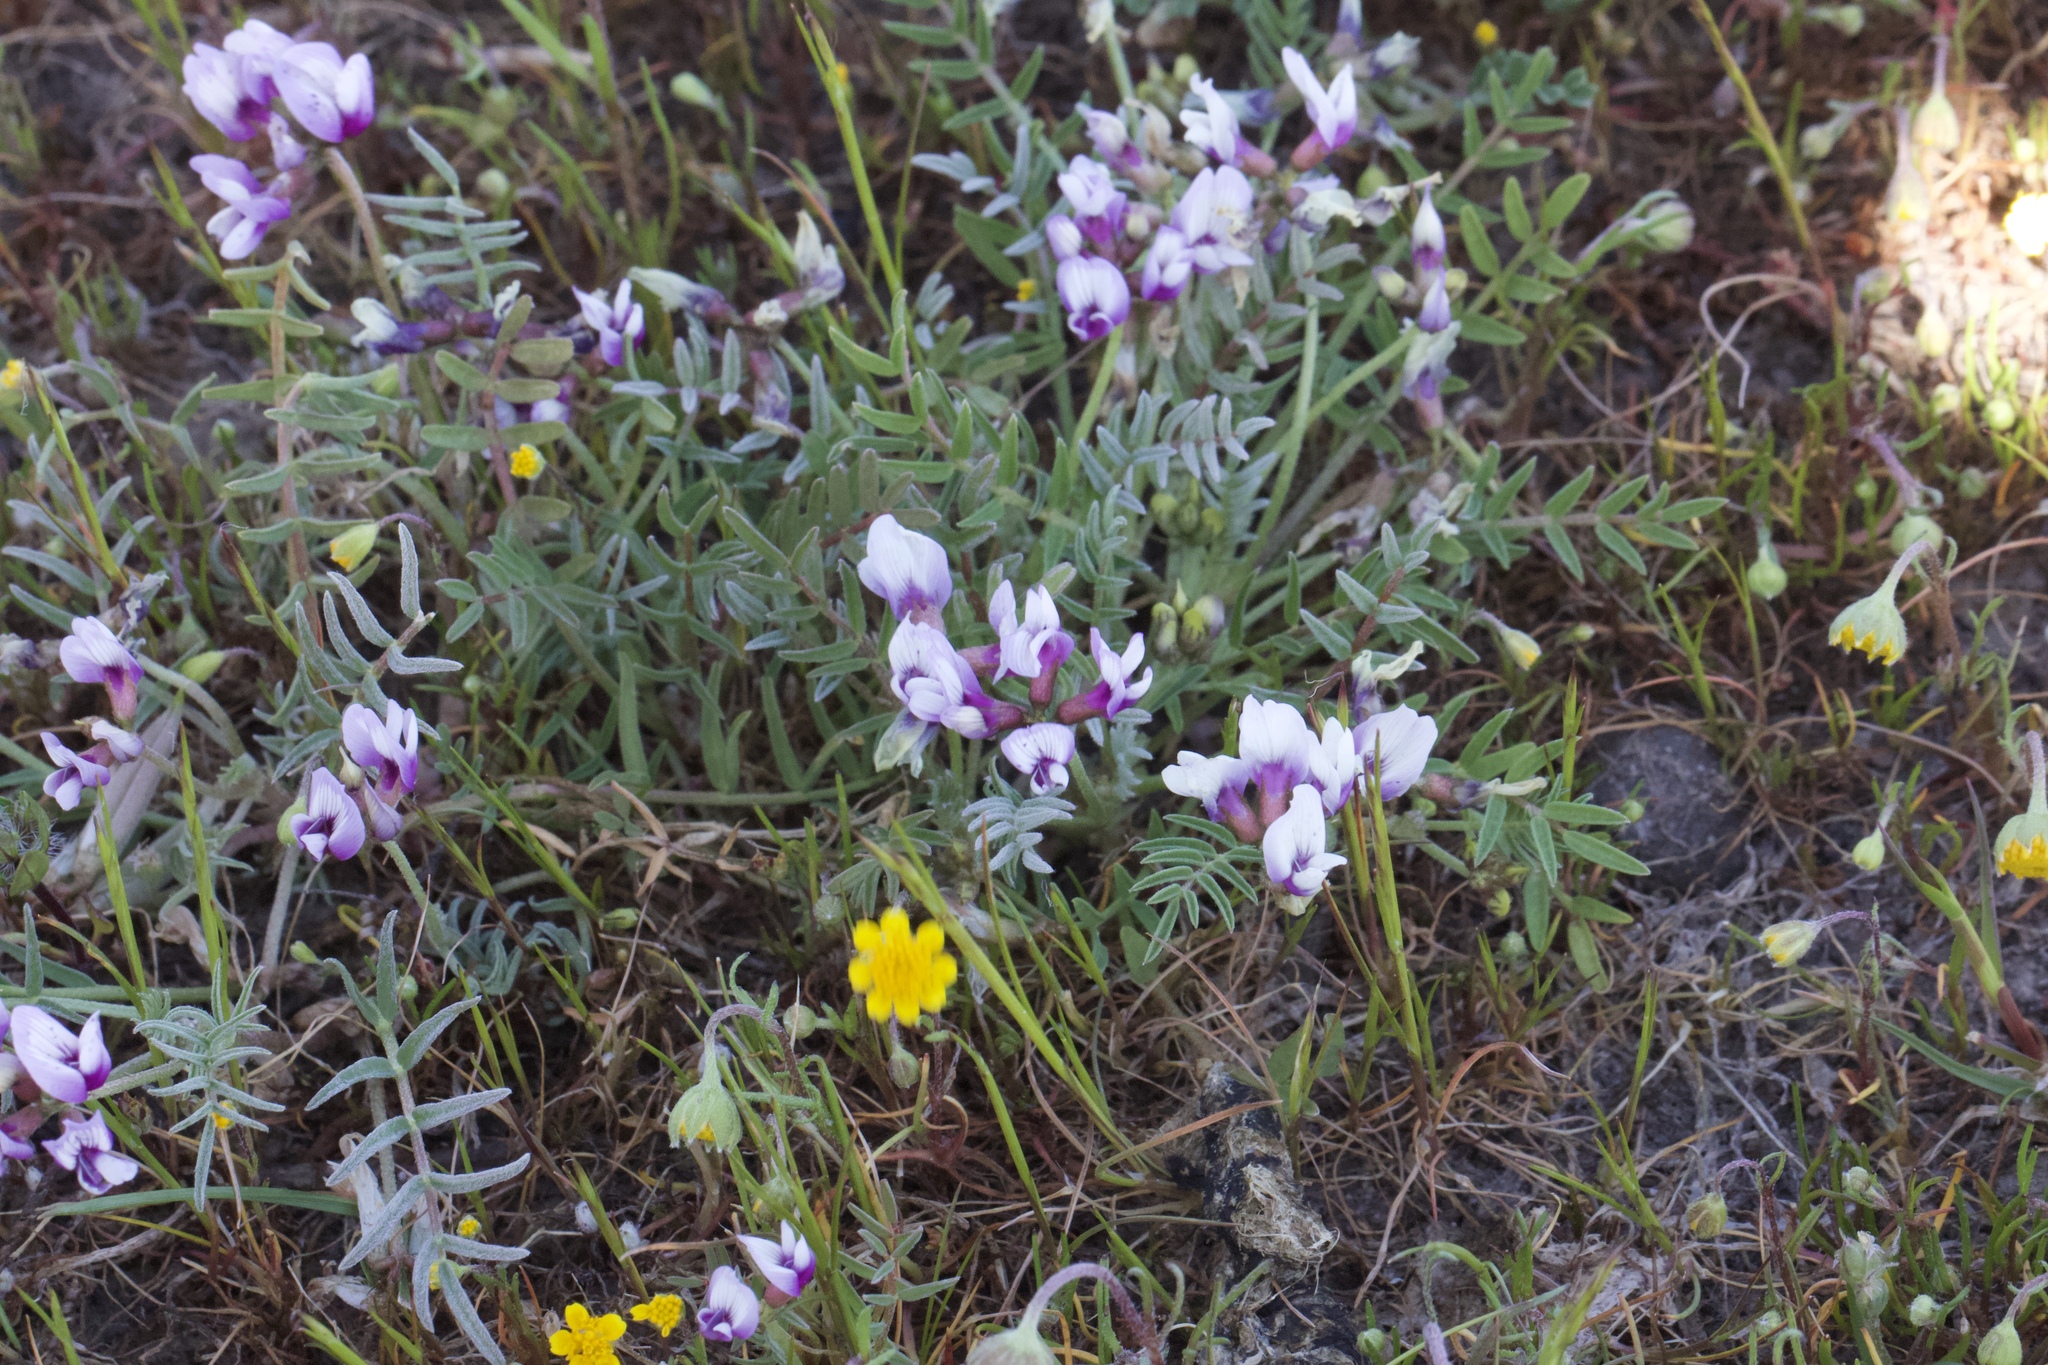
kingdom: Plantae
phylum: Tracheophyta
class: Magnoliopsida
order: Fabales
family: Fabaceae
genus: Astragalus
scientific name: Astragalus tener
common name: Gray slender milkvetch
